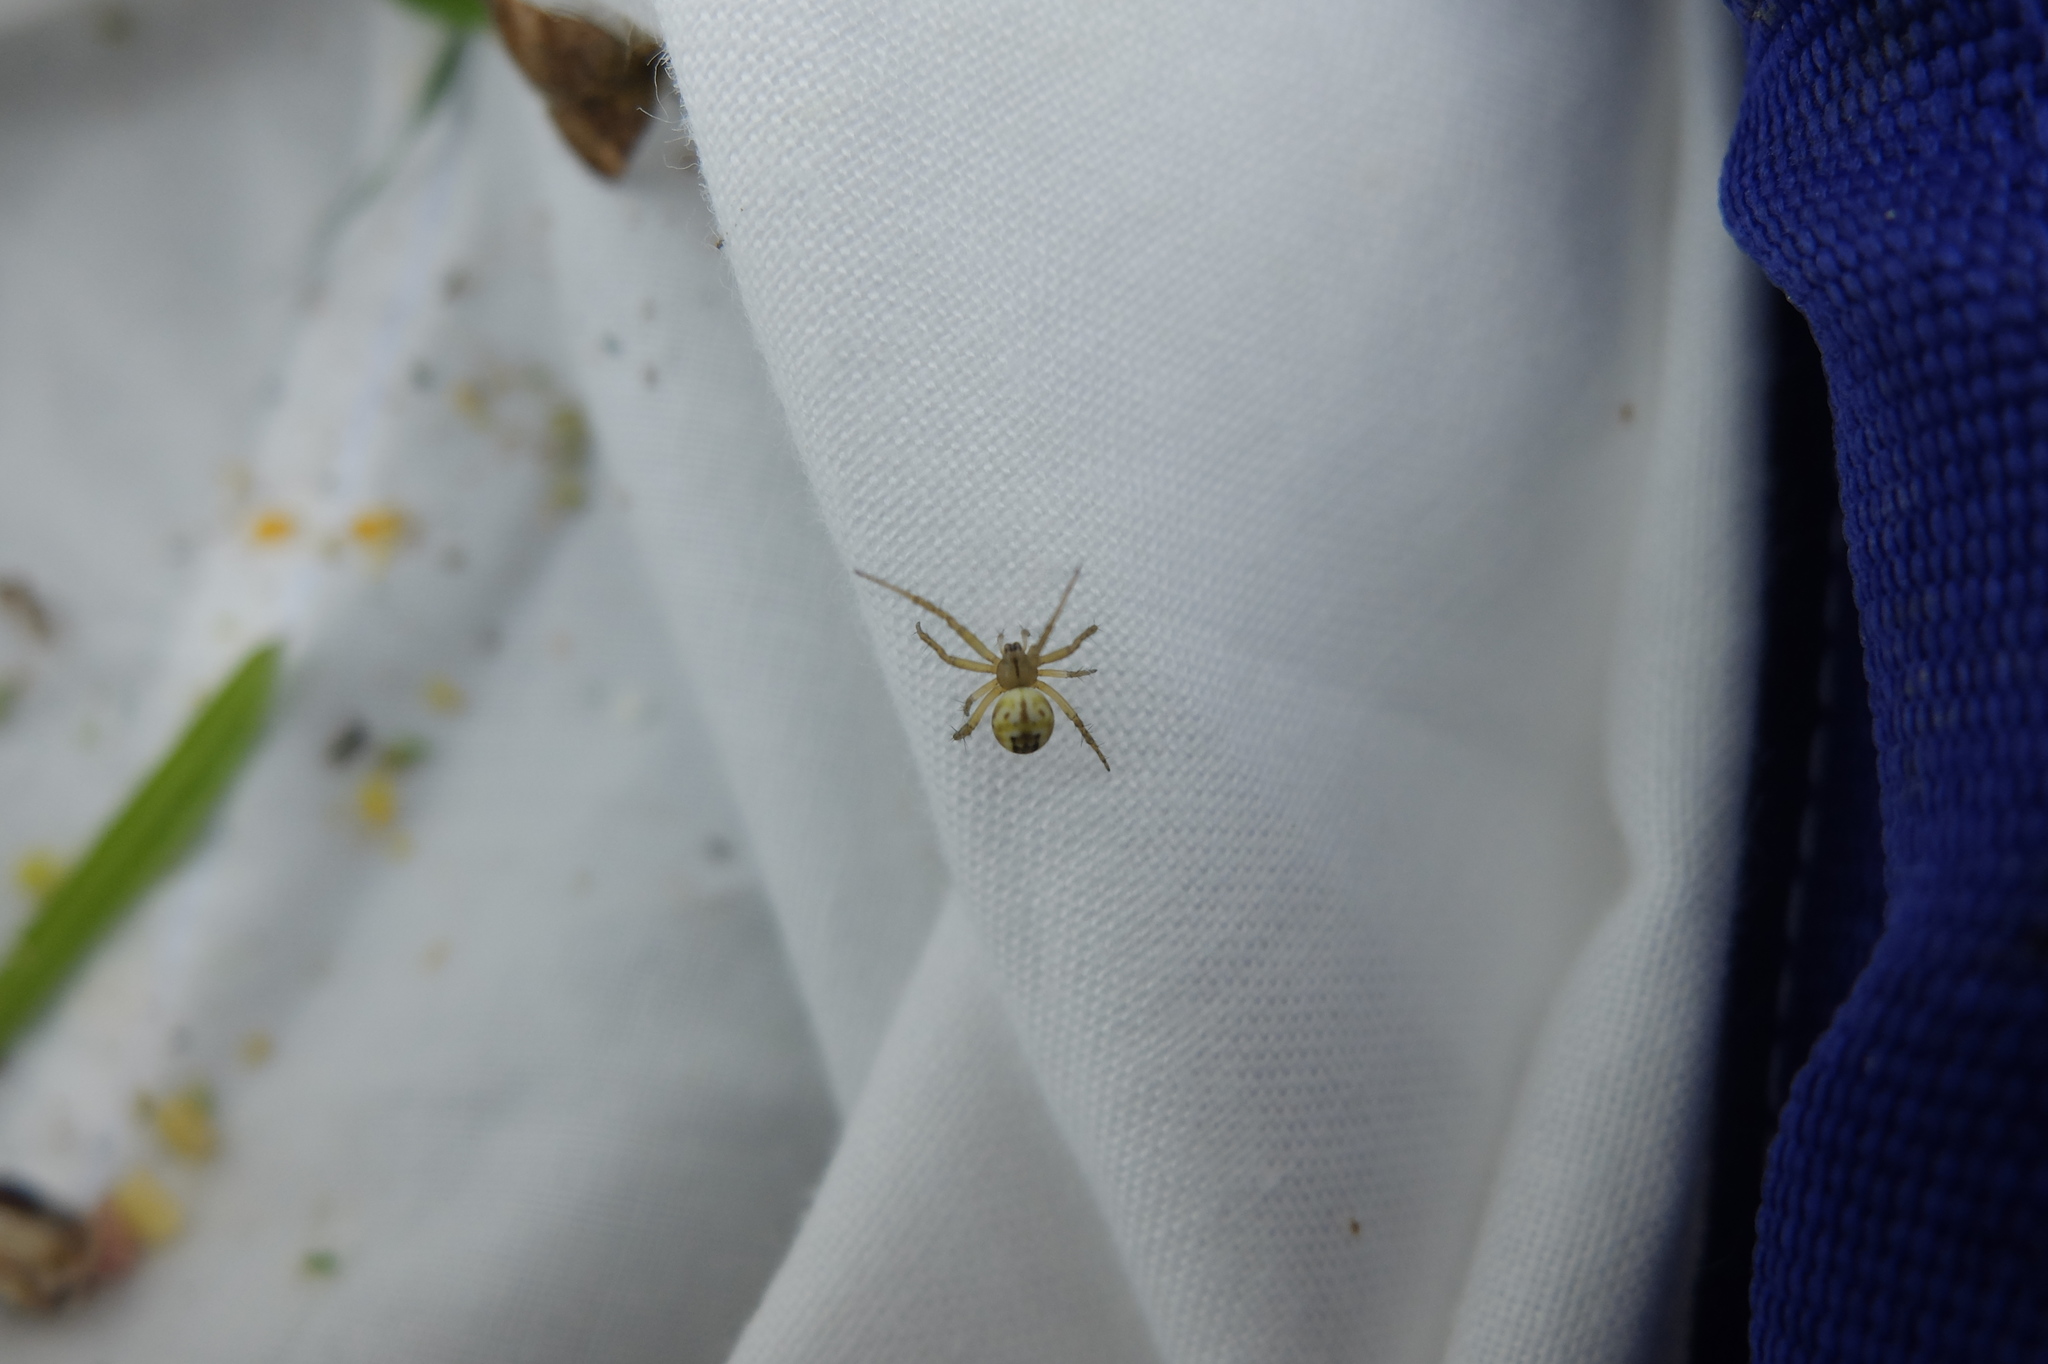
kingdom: Animalia
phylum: Arthropoda
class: Arachnida
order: Araneae
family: Araneidae
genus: Mangora
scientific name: Mangora acalypha
